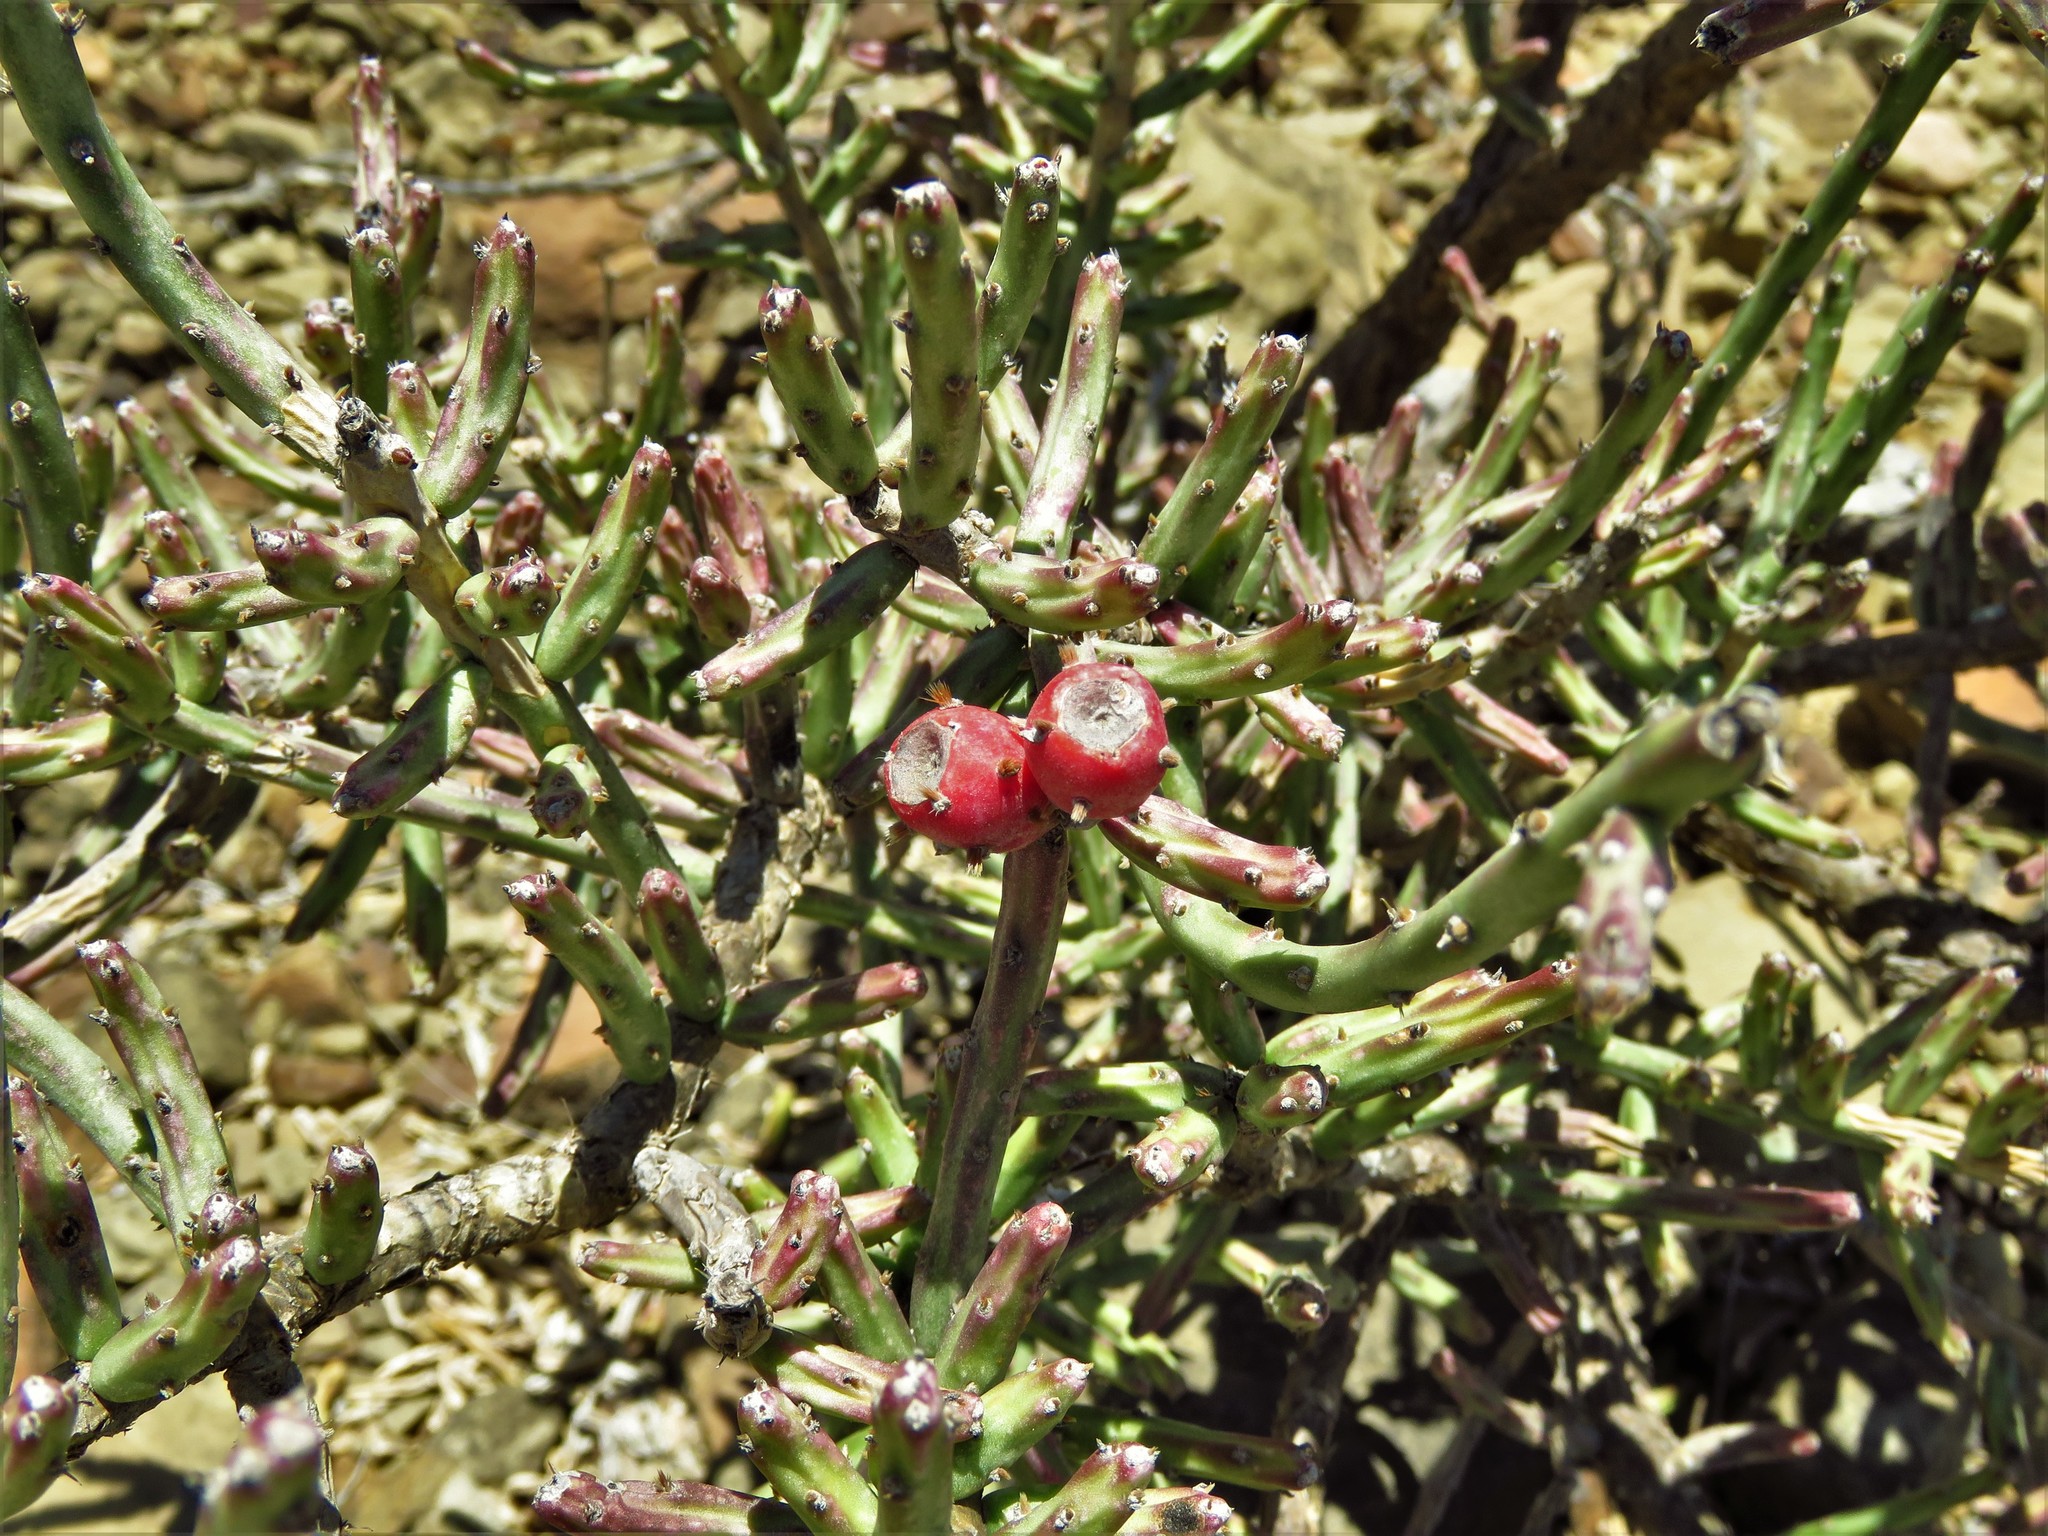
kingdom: Plantae
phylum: Tracheophyta
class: Magnoliopsida
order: Caryophyllales
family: Cactaceae
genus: Cylindropuntia
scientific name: Cylindropuntia leptocaulis
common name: Christmas cactus
